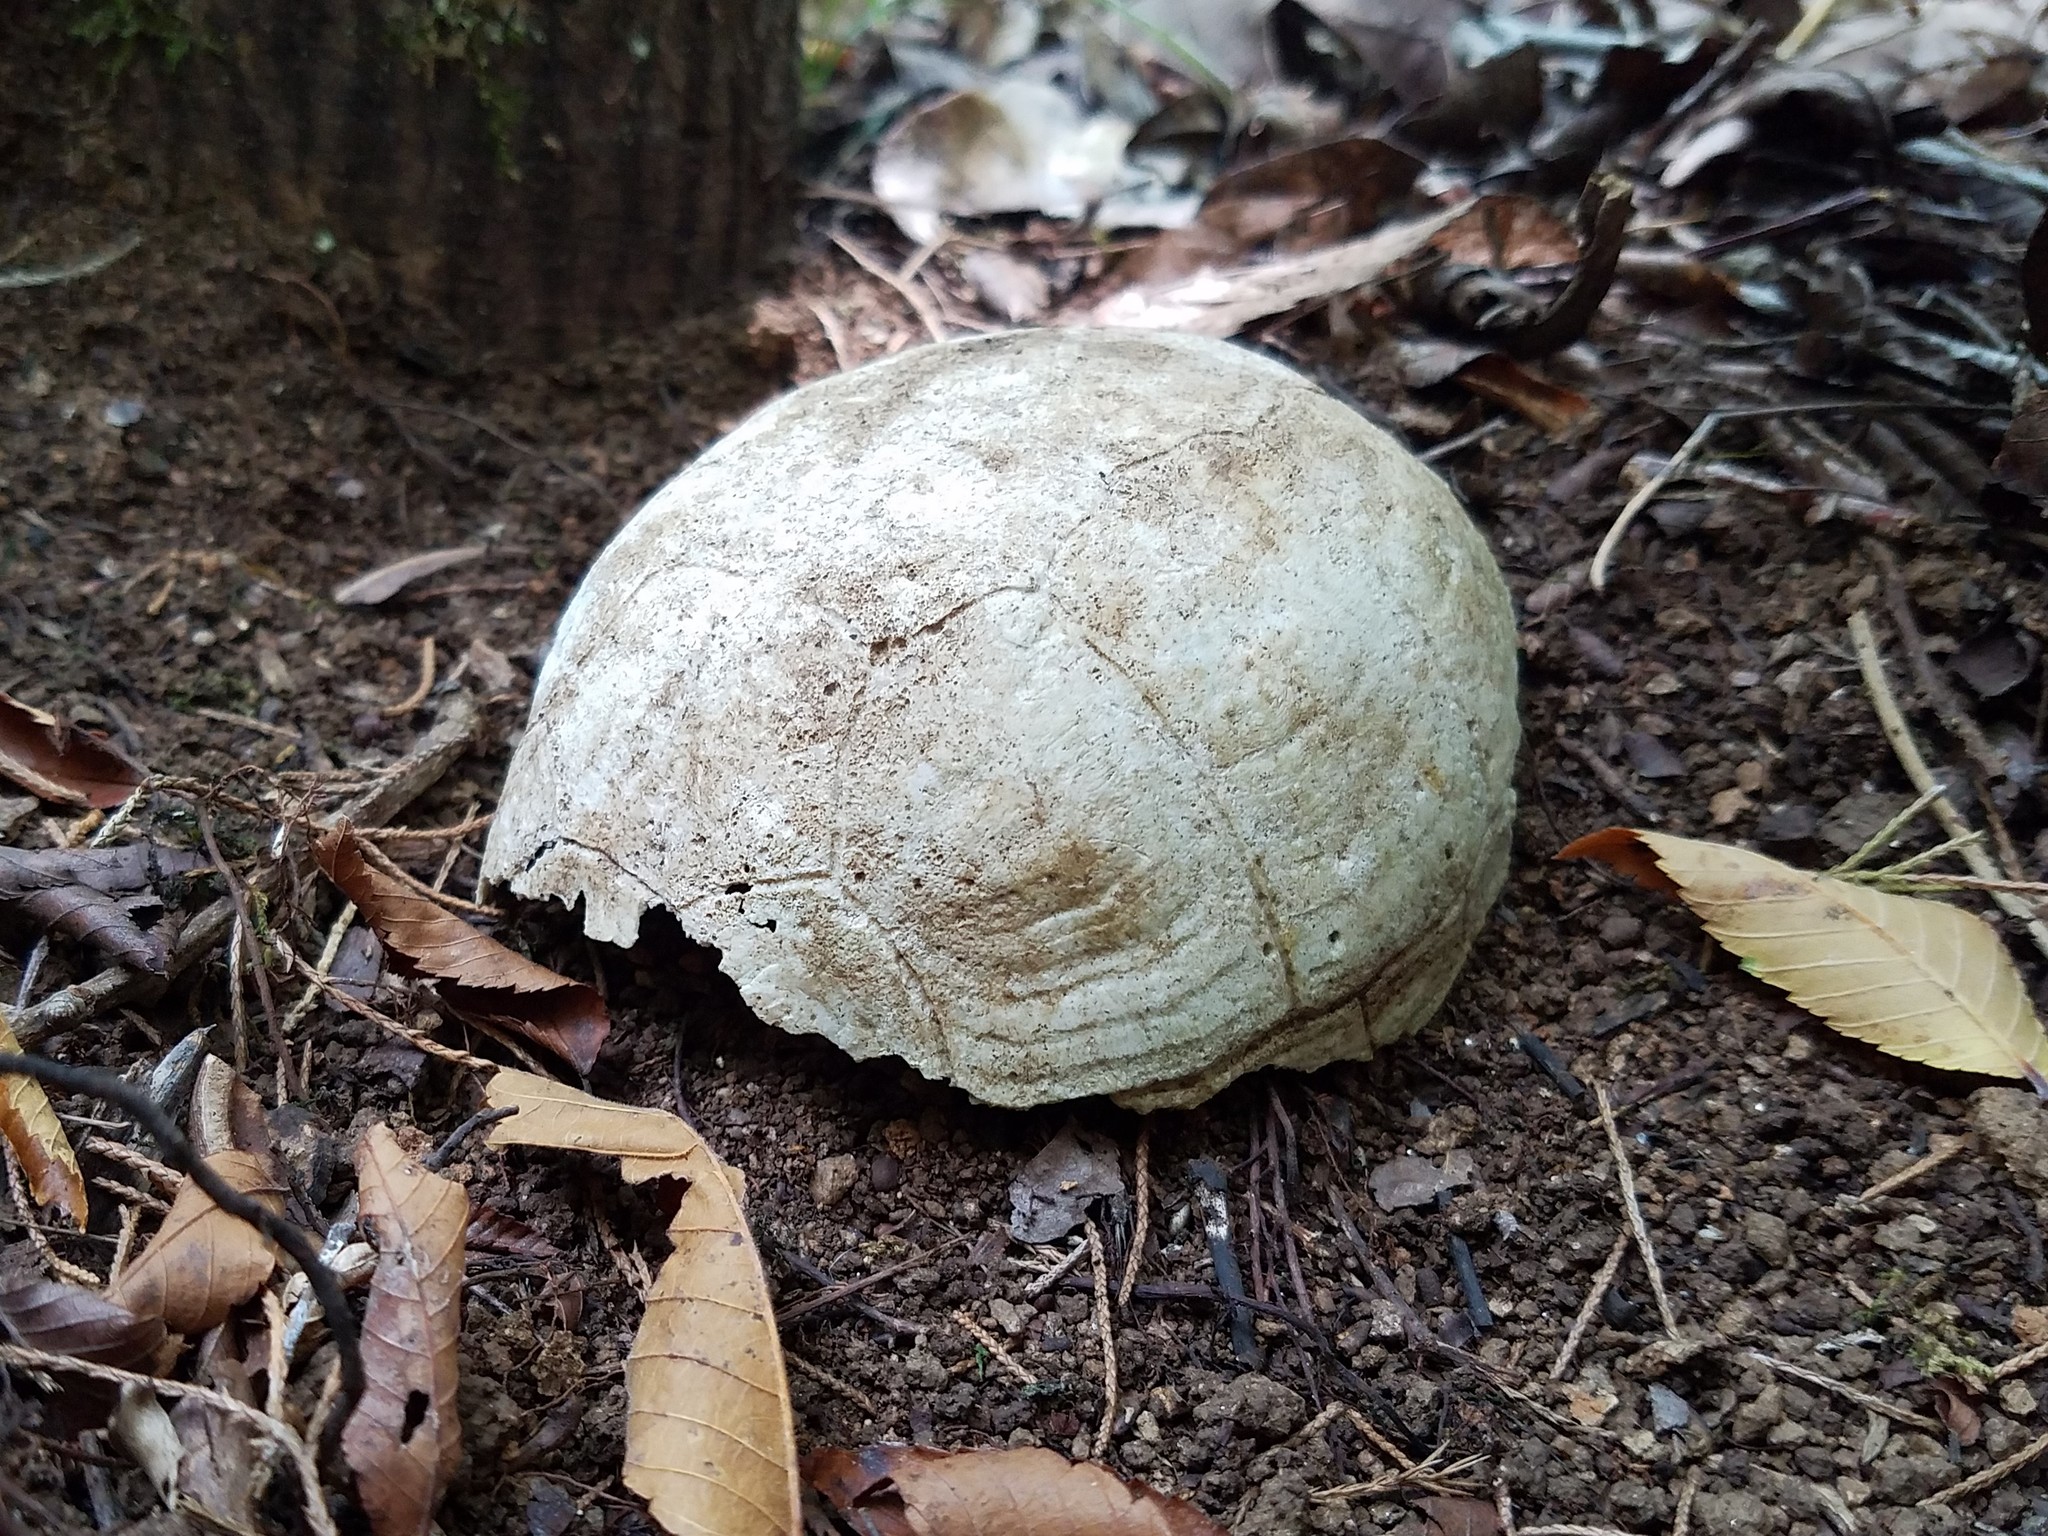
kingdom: Animalia
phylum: Chordata
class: Testudines
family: Emydidae
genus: Terrapene
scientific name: Terrapene carolina
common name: Common box turtle
